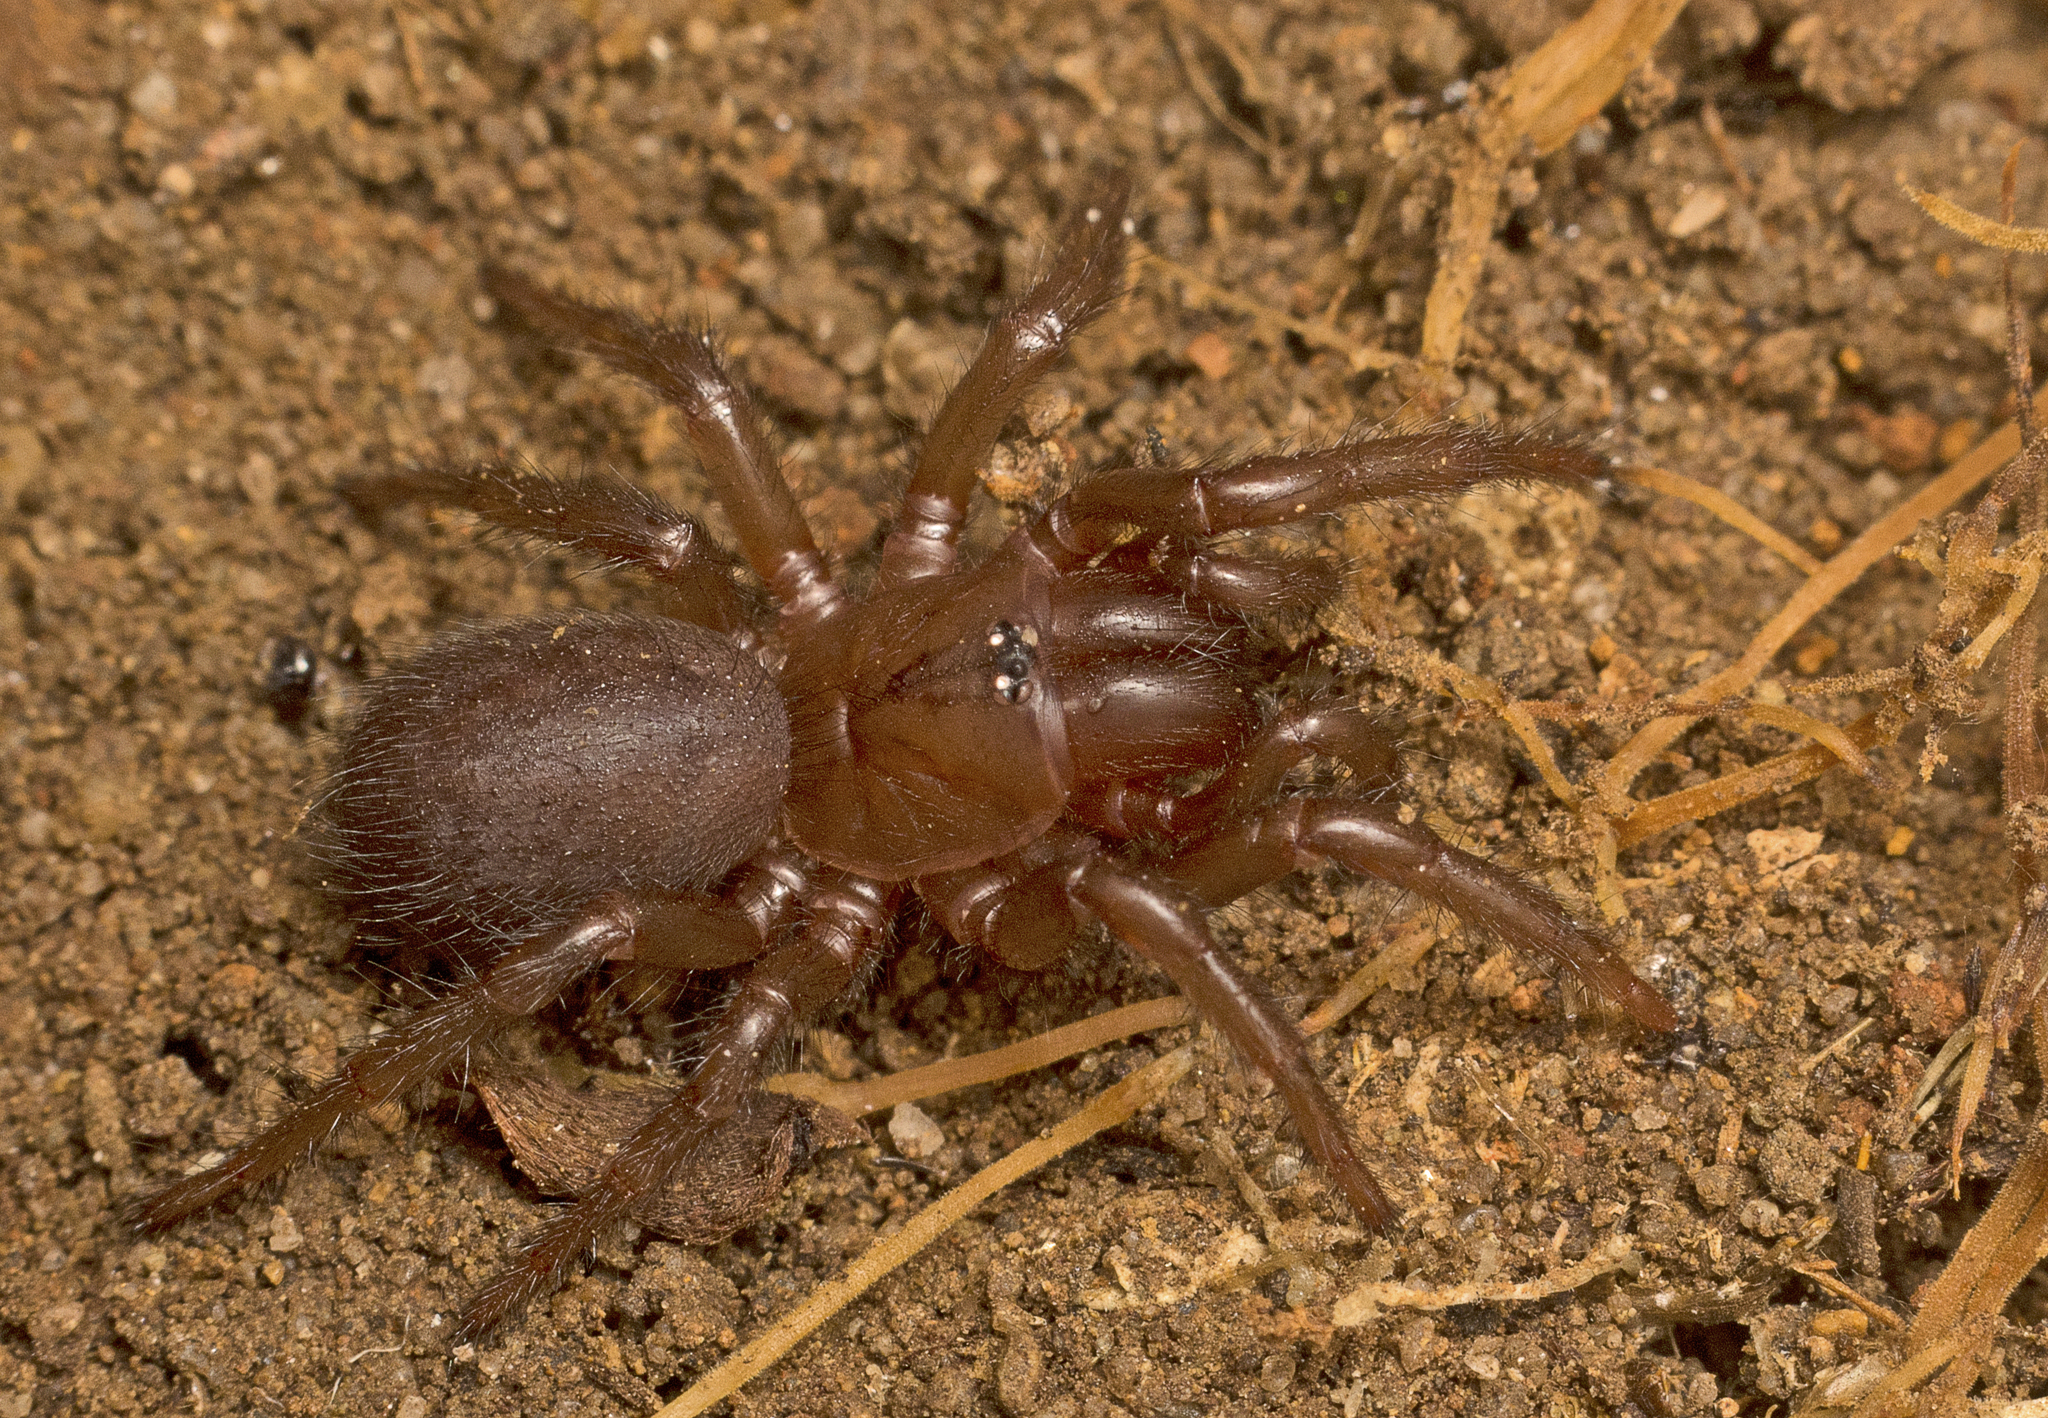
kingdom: Animalia
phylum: Arthropoda
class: Arachnida
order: Araneae
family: Atracidae
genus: Hadronyche
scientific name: Hadronyche infensa
